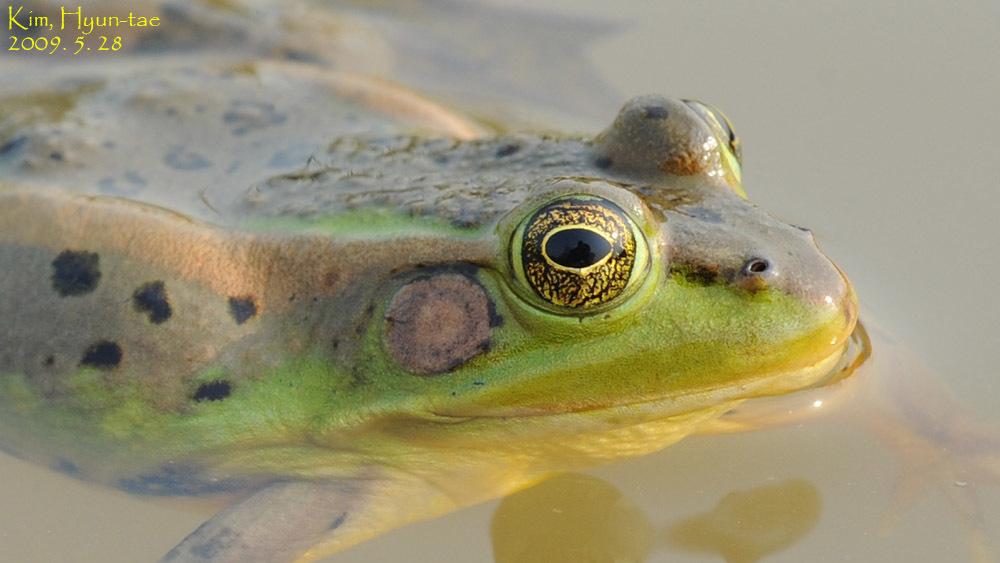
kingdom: Animalia
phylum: Chordata
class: Amphibia
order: Anura
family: Ranidae
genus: Pelophylax
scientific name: Pelophylax chosenicus
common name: Gold-spotted pond frog
